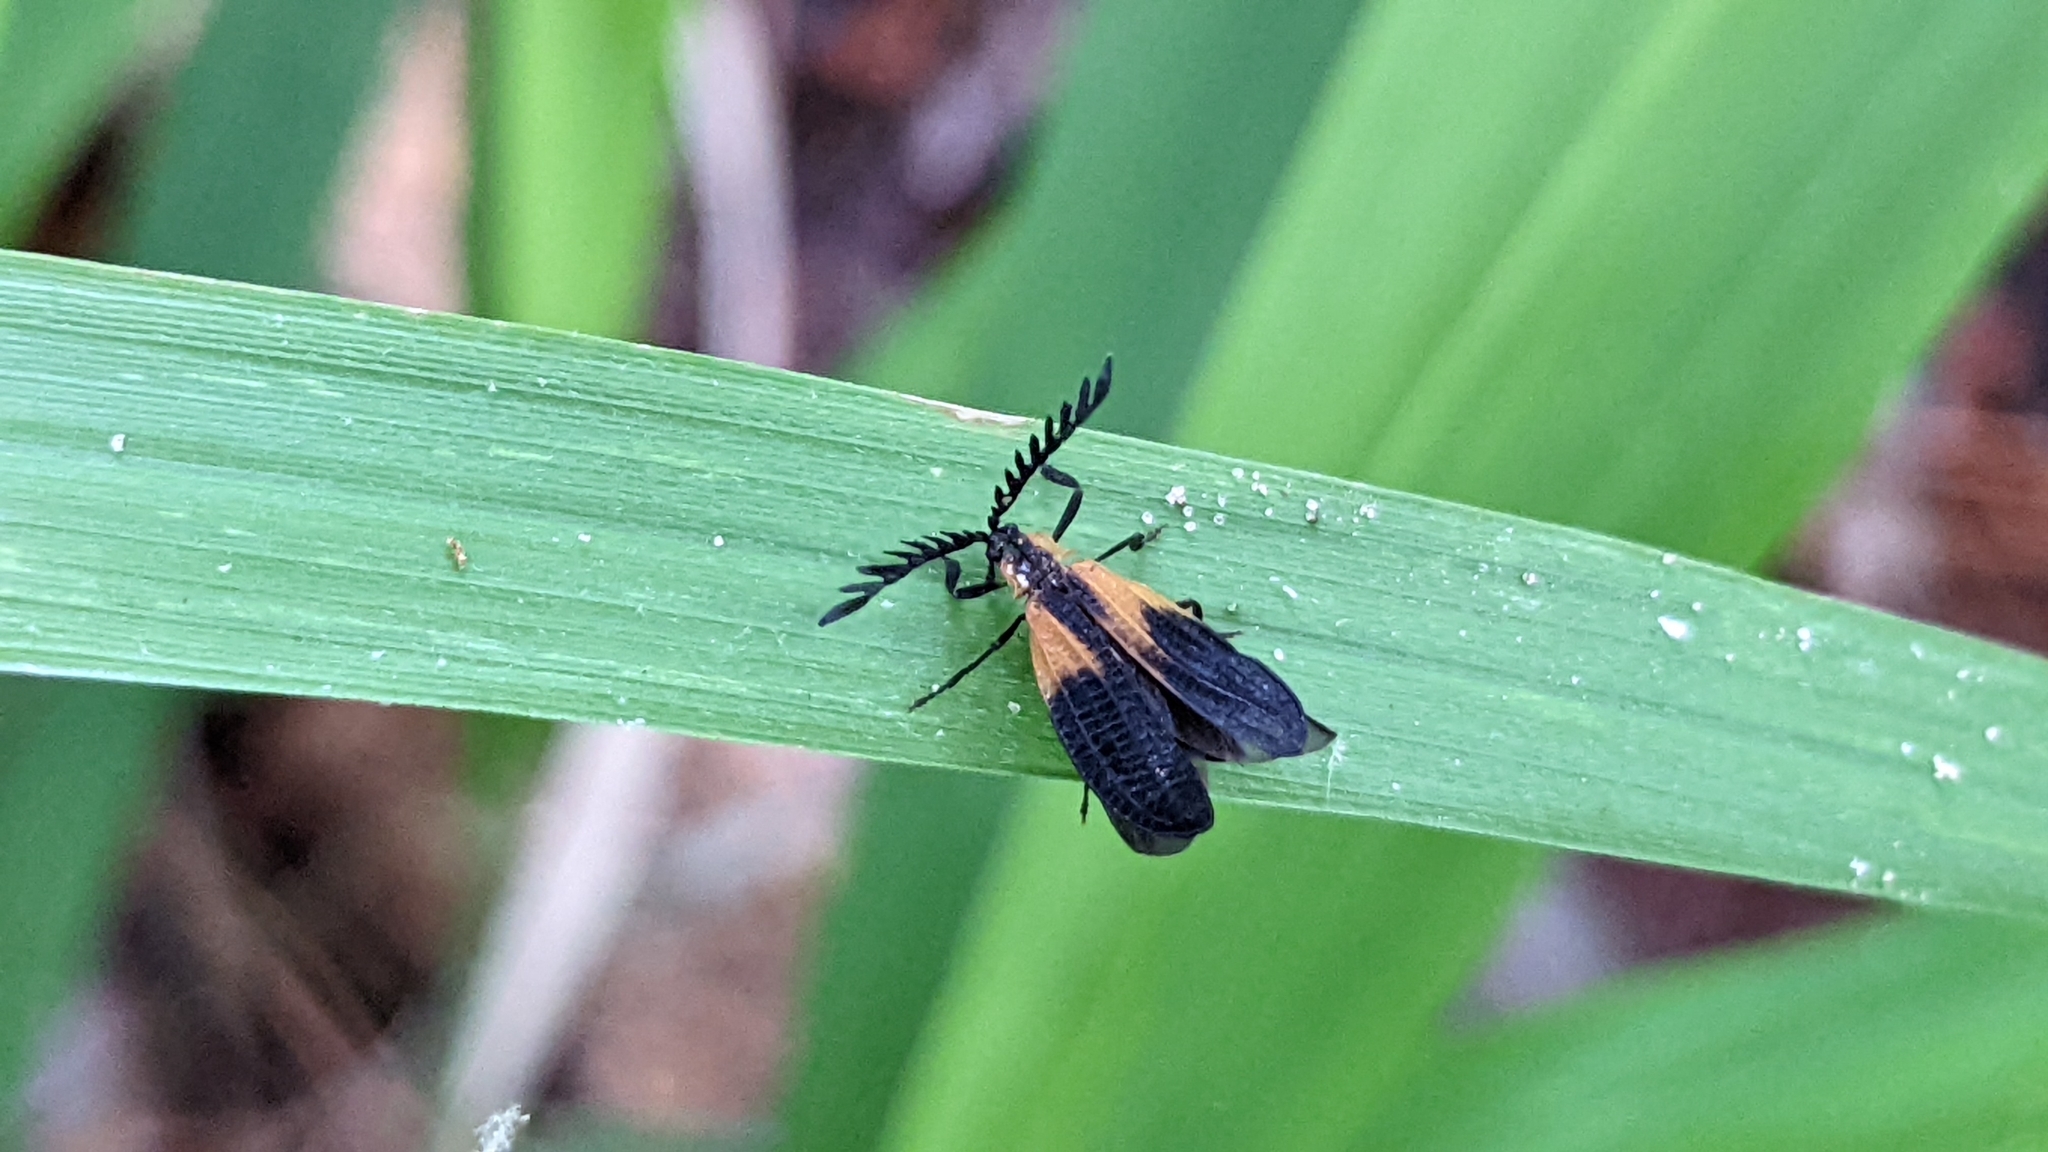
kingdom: Animalia
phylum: Arthropoda
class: Insecta
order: Coleoptera
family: Lycidae
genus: Caenia
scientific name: Caenia dimidiata
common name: Terminal net-winged beetle
